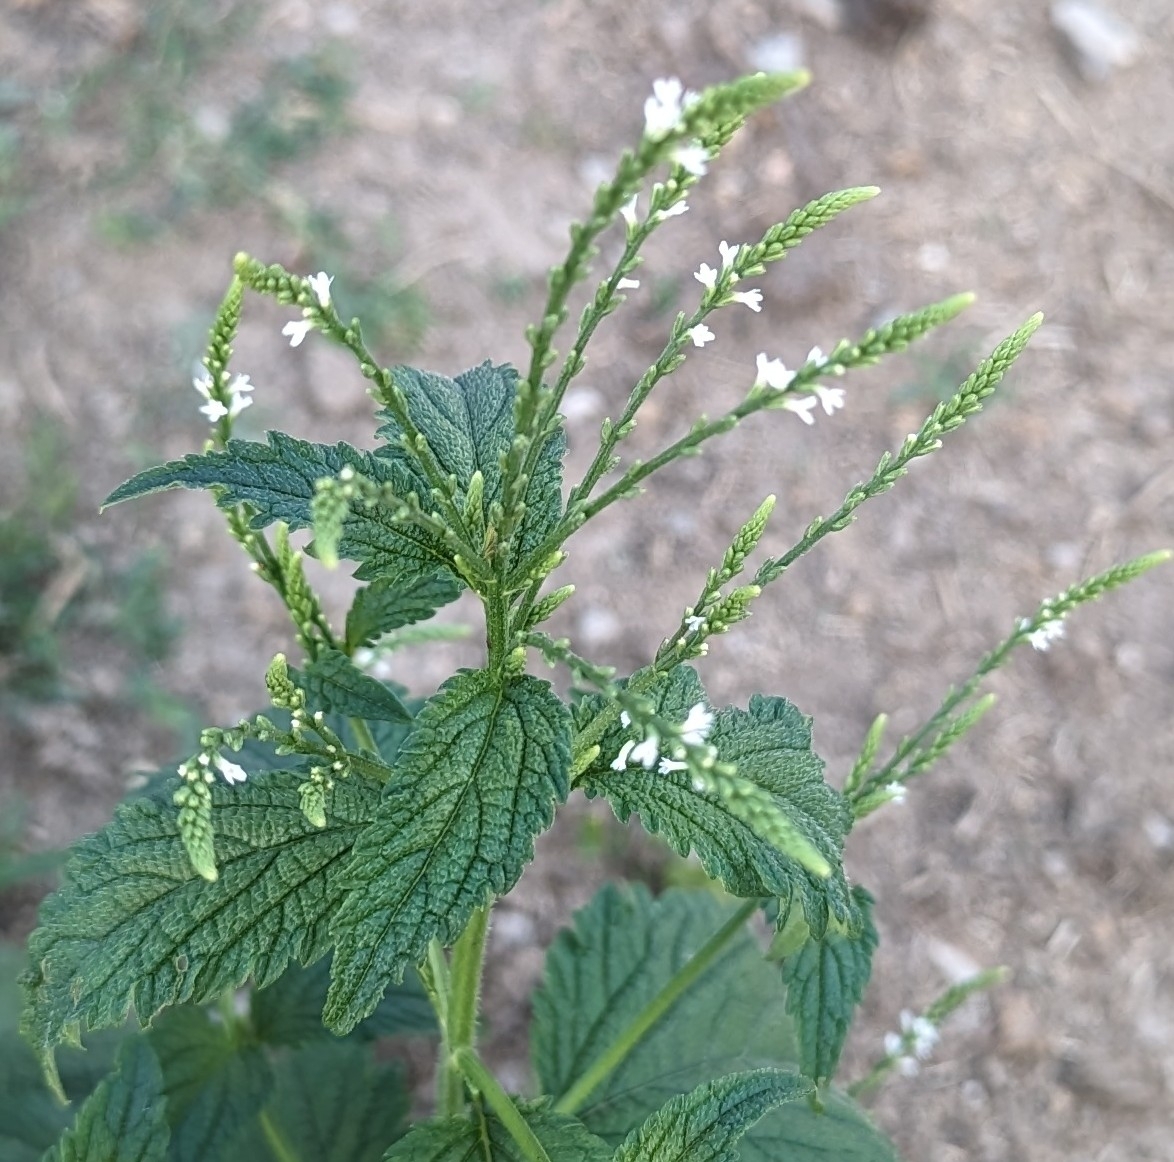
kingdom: Plantae
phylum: Tracheophyta
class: Magnoliopsida
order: Lamiales
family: Verbenaceae
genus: Verbena
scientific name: Verbena urticifolia
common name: Nettle-leaved vervain
